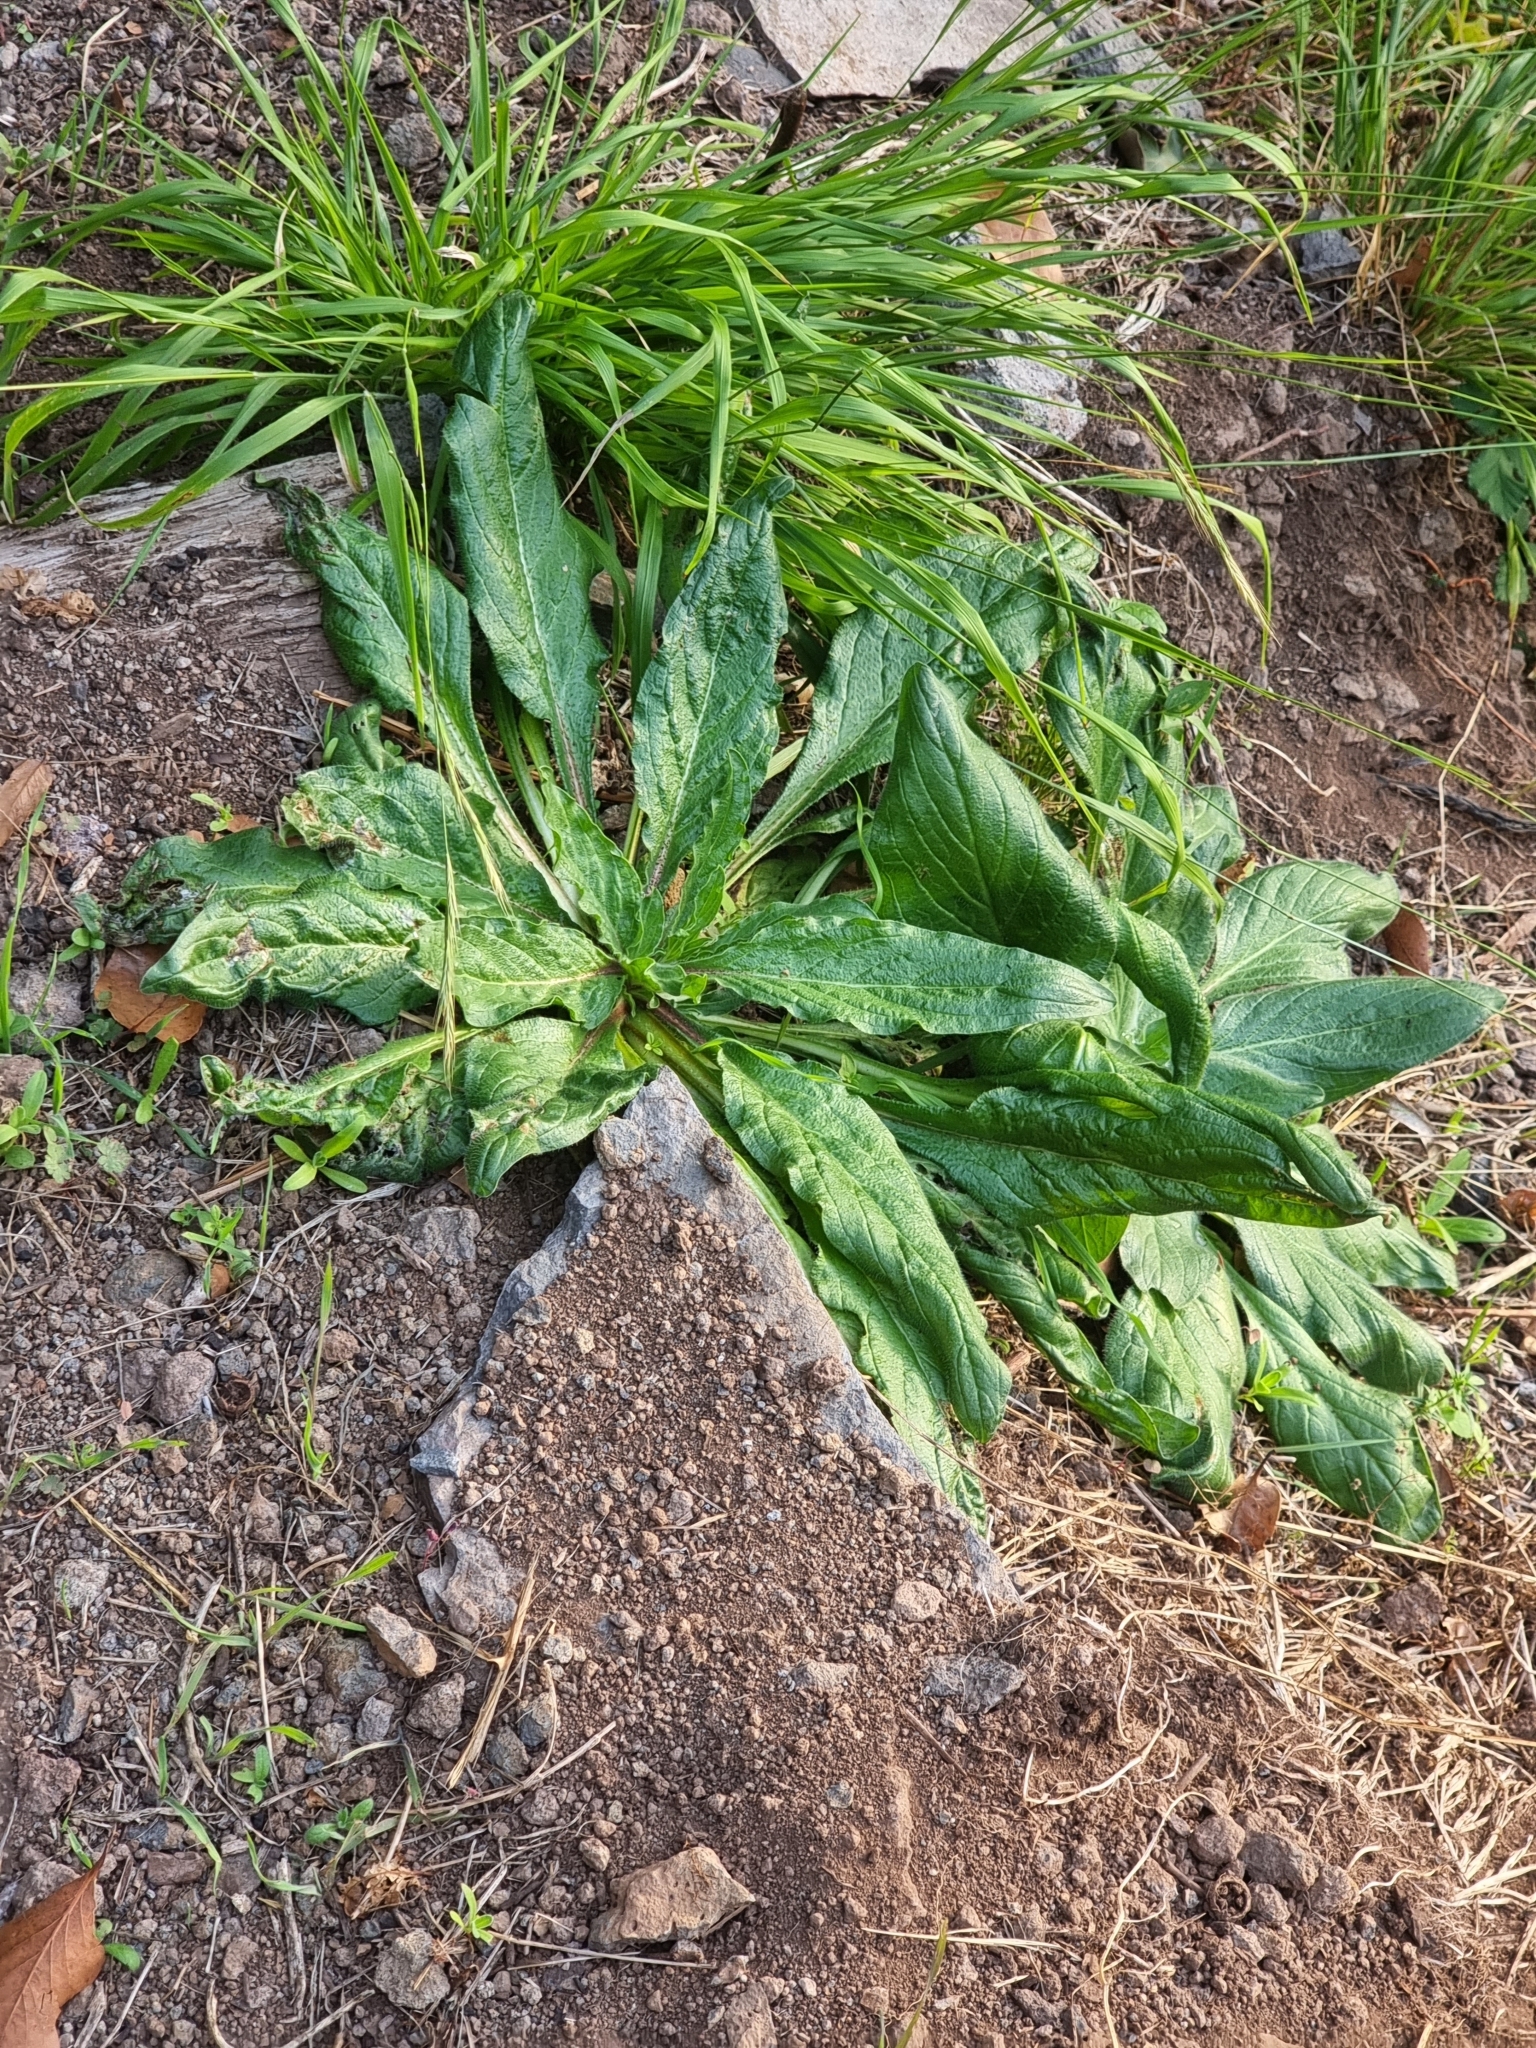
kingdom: Plantae
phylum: Tracheophyta
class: Magnoliopsida
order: Boraginales
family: Boraginaceae
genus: Echium
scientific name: Echium plantagineum
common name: Purple viper's-bugloss
